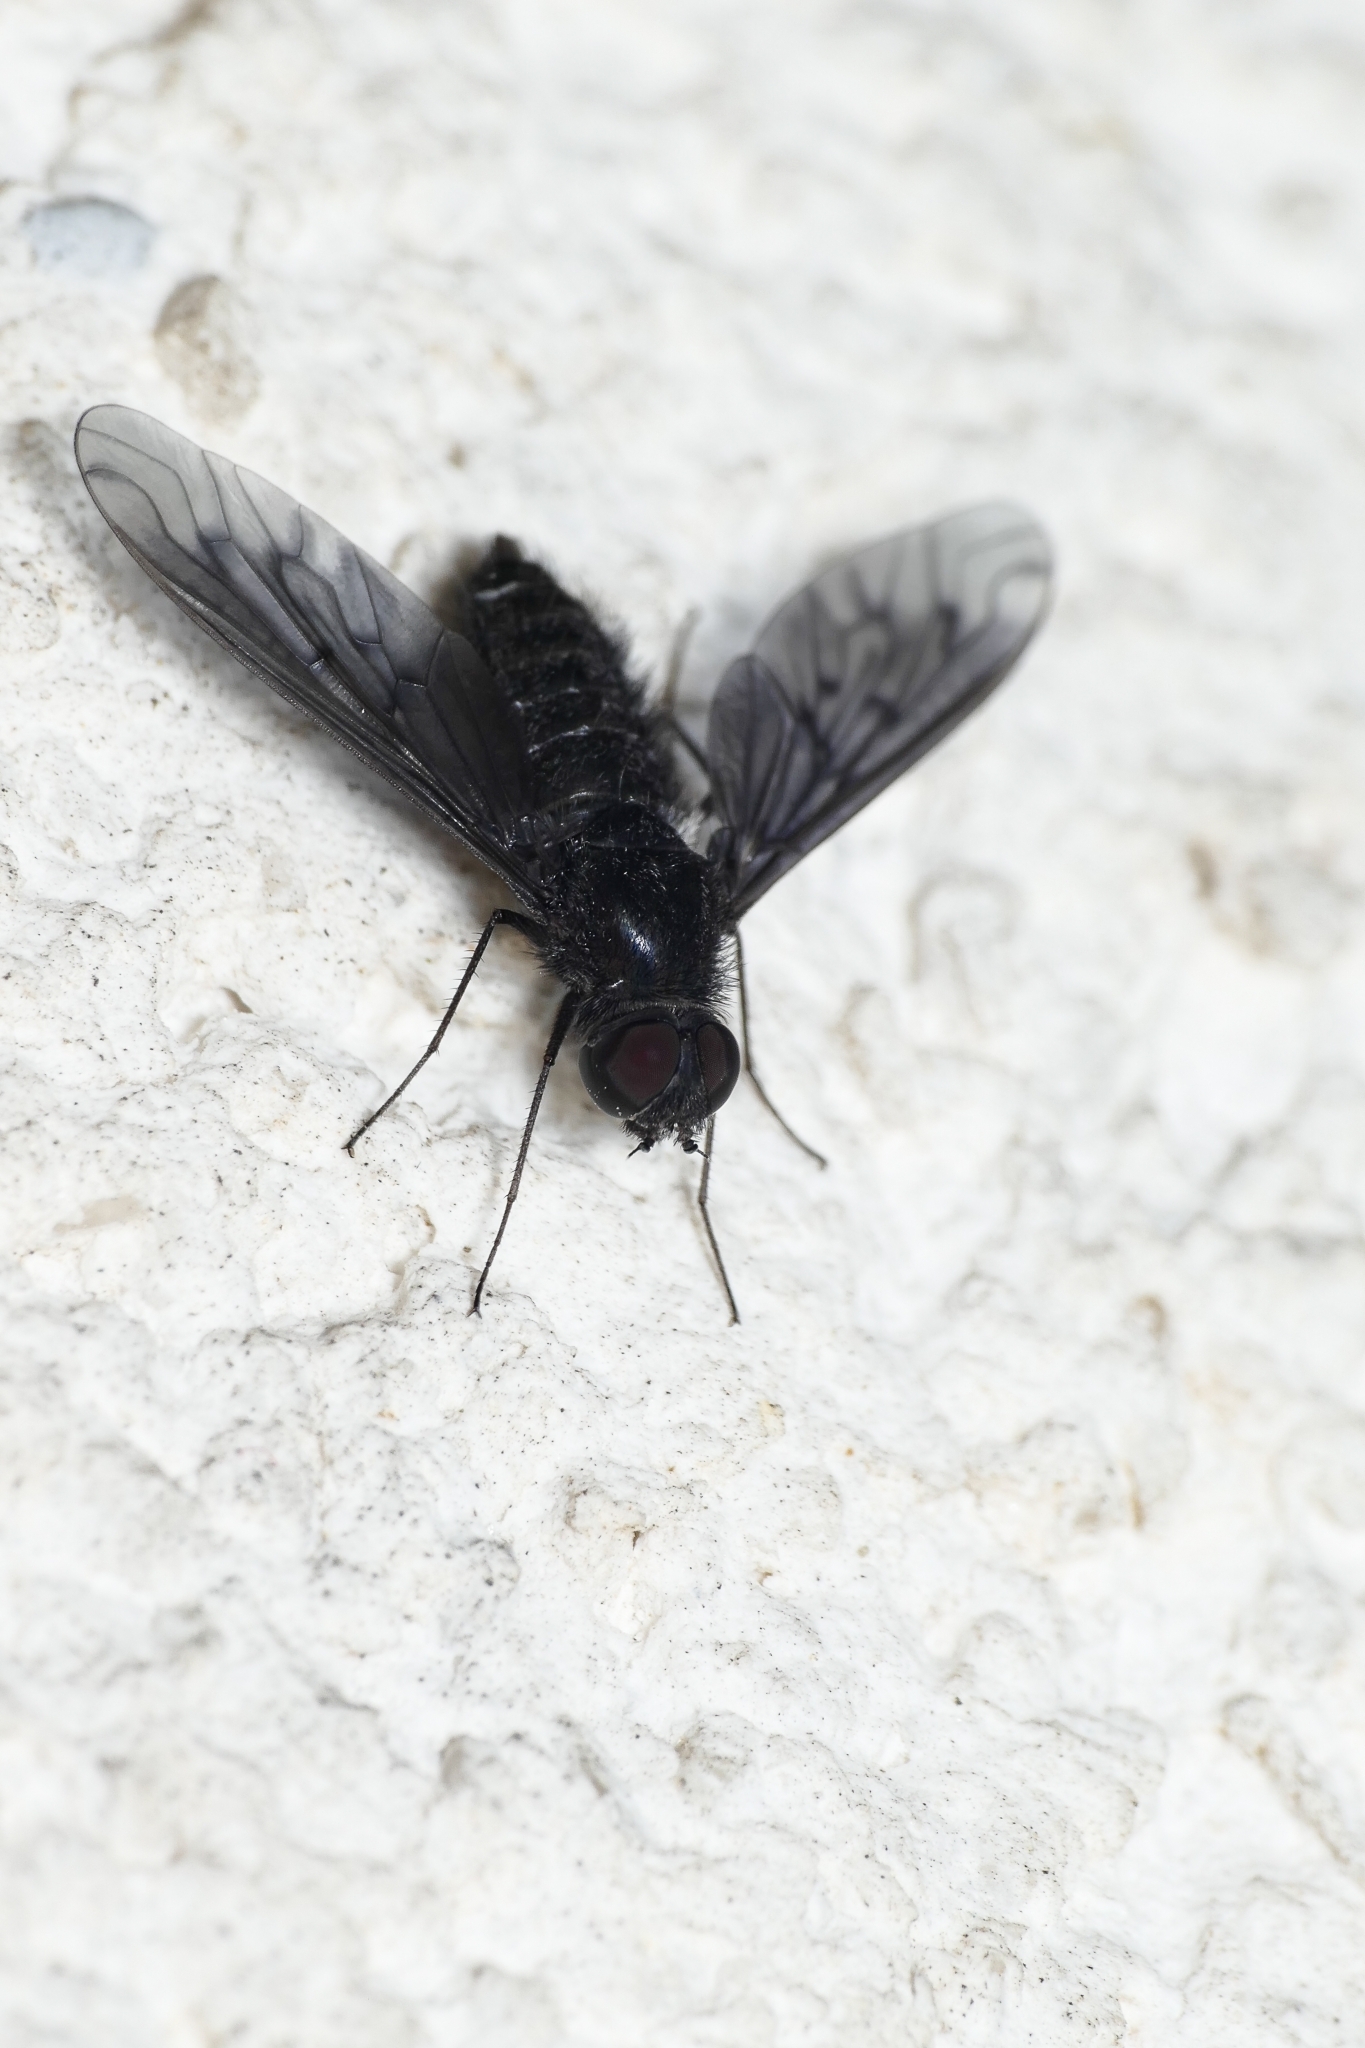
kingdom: Animalia
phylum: Arthropoda
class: Insecta
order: Diptera
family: Bombyliidae
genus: Anthrax
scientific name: Anthrax anthrax
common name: Anthracite bee-fly
